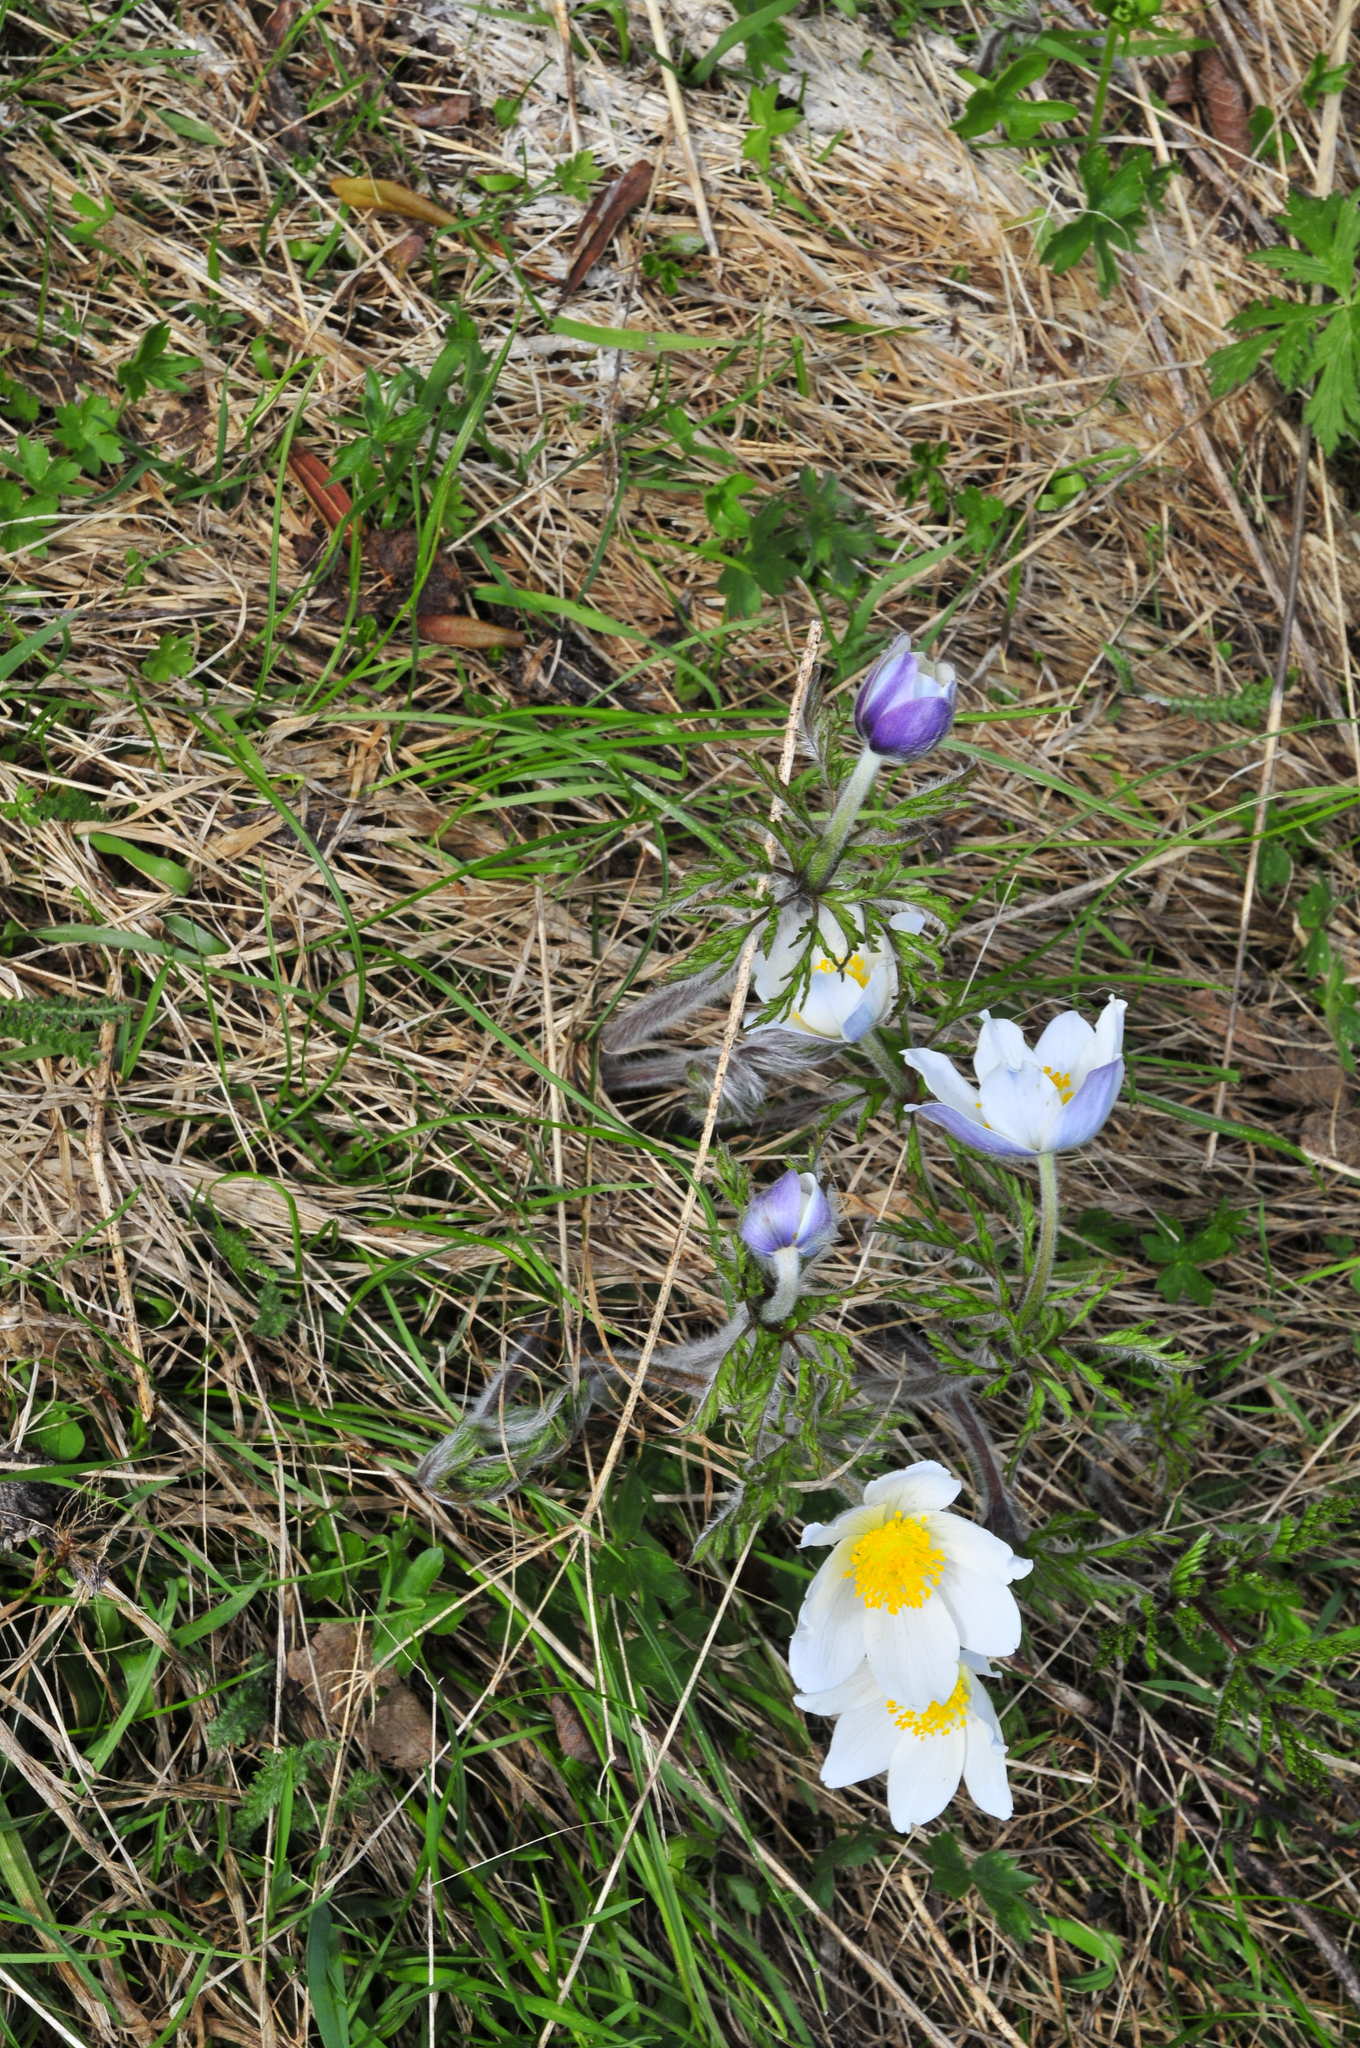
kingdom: Plantae
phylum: Tracheophyta
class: Magnoliopsida
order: Ranunculales
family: Ranunculaceae
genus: Pulsatilla
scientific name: Pulsatilla alpina
